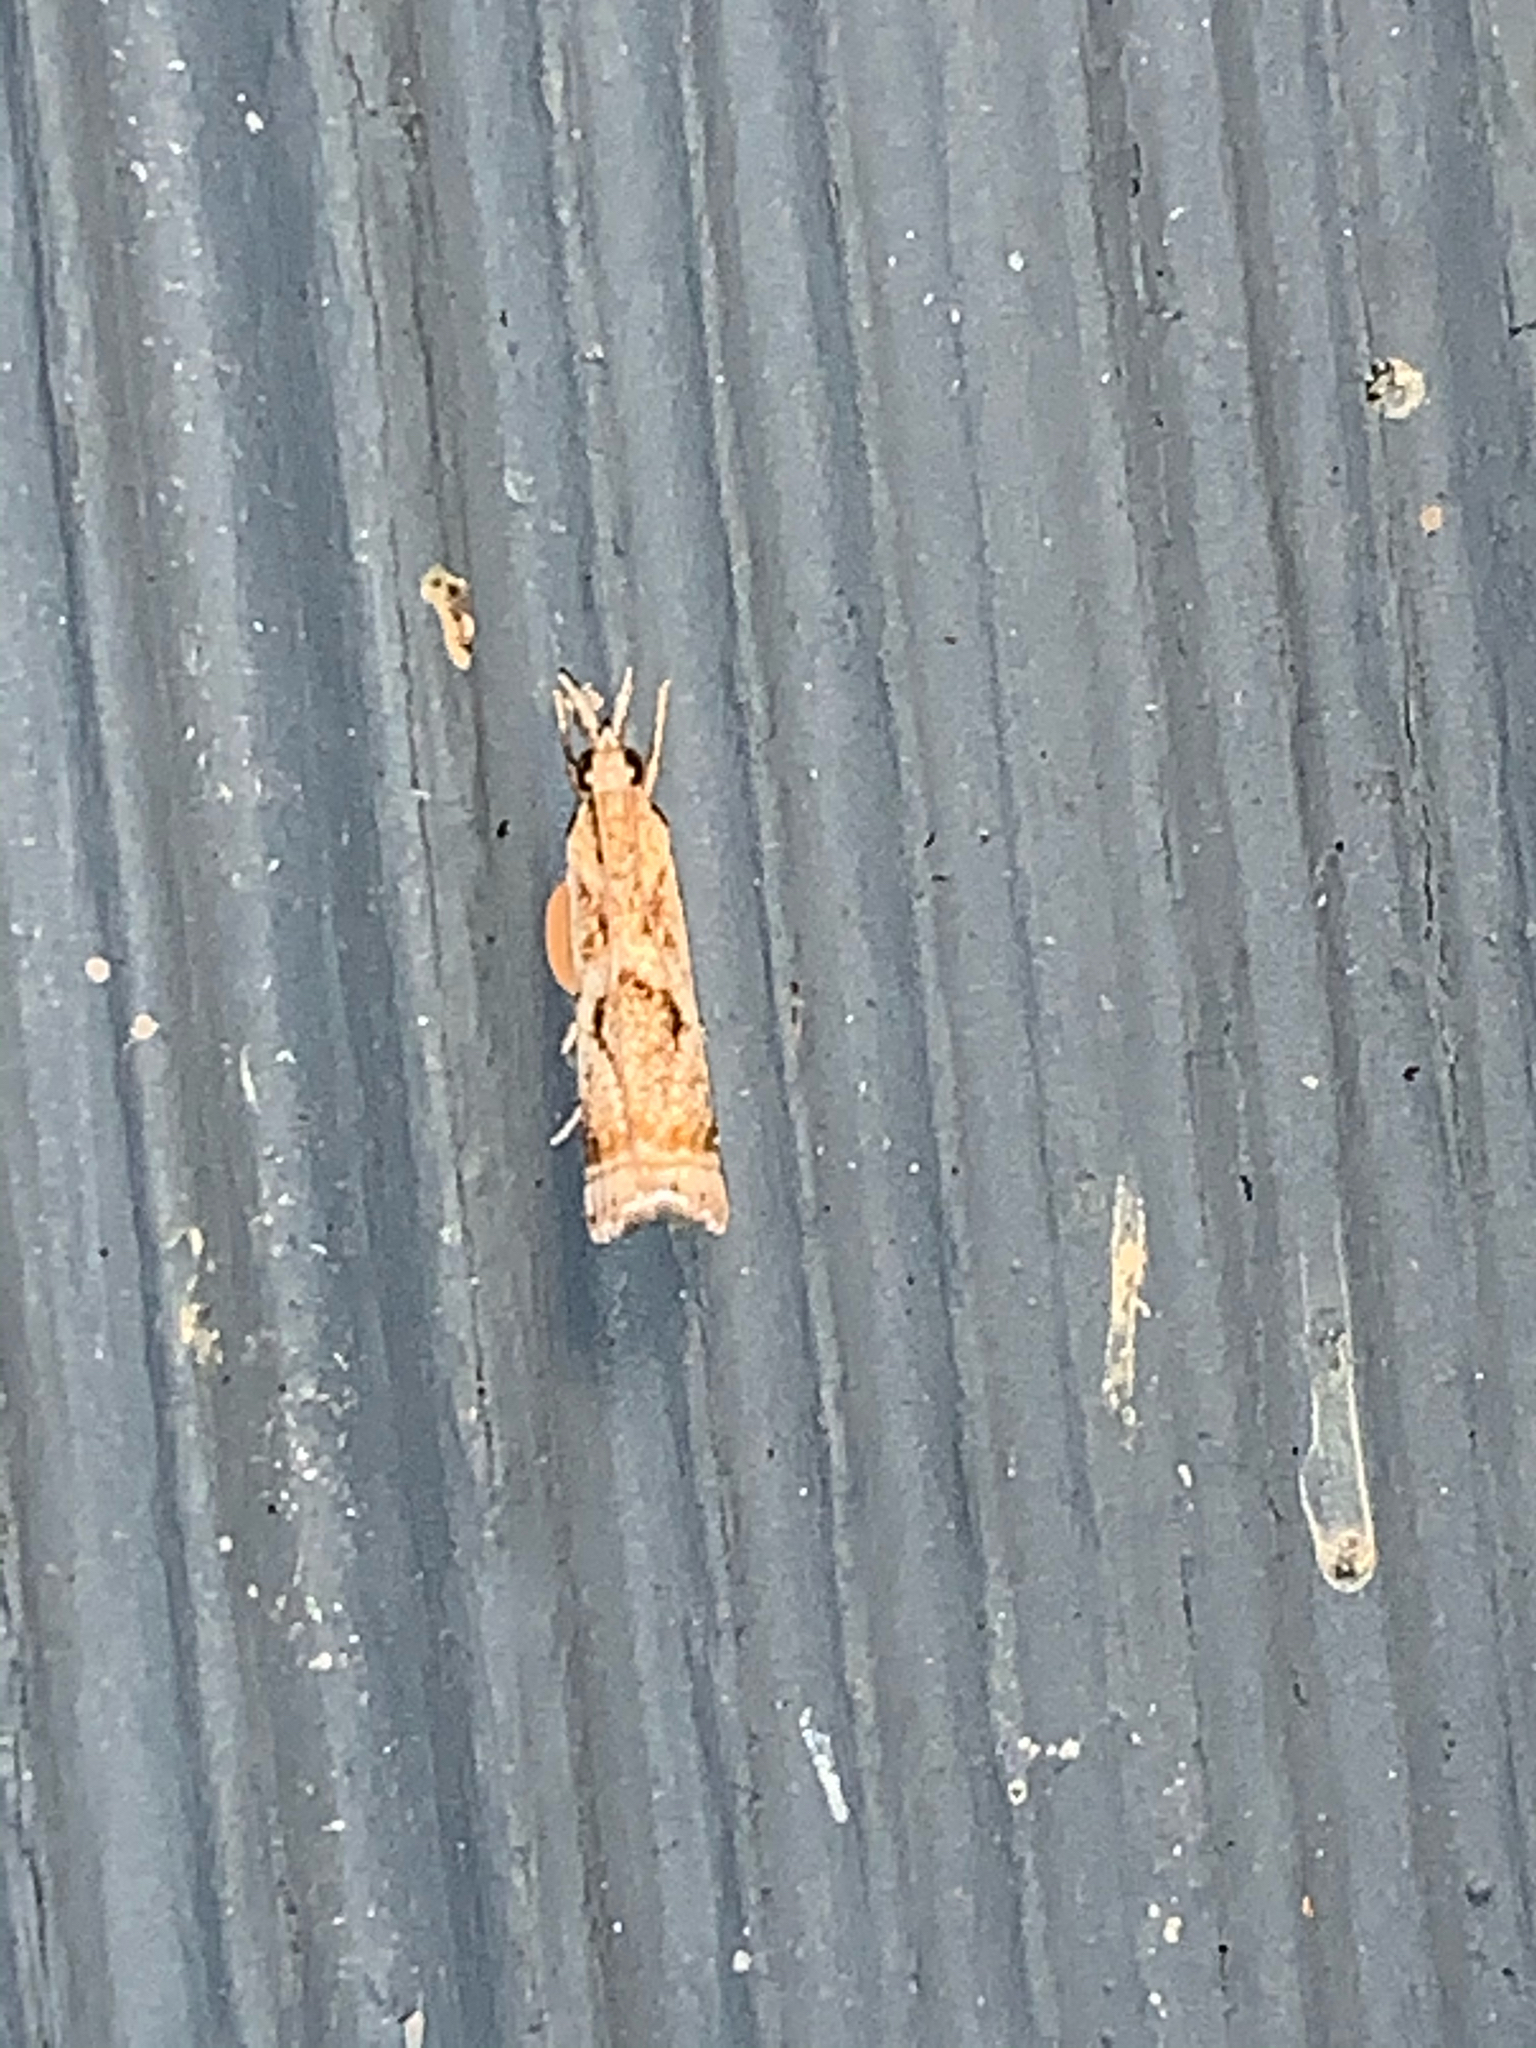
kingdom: Animalia
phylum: Arthropoda
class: Insecta
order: Lepidoptera
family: Crambidae
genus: Microcrambus
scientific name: Microcrambus elegans
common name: Elegant grass-veneer
